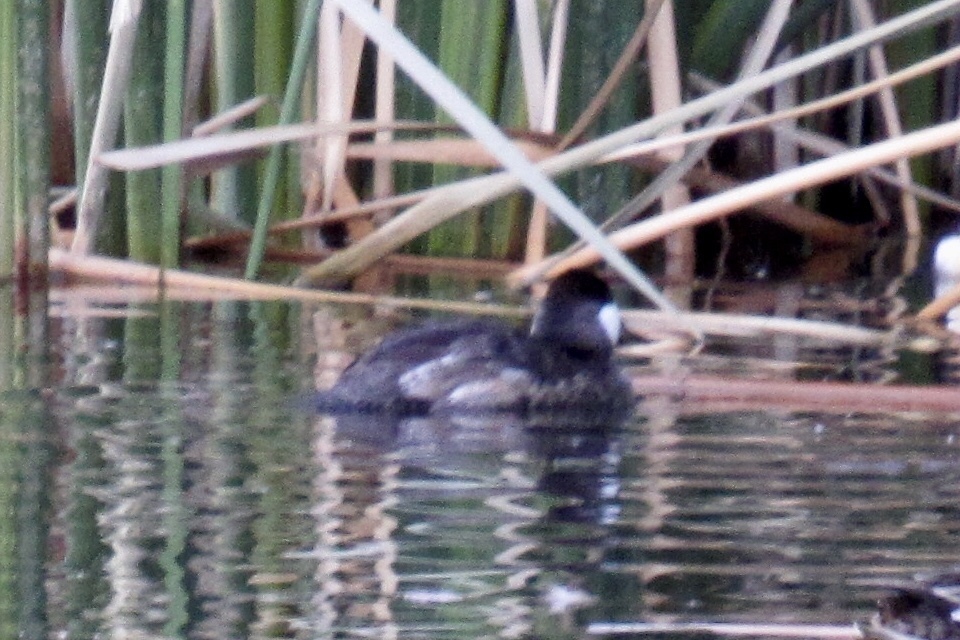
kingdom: Animalia
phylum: Chordata
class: Aves
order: Anseriformes
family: Anatidae
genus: Oxyura
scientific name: Oxyura jamaicensis
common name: Ruddy duck
